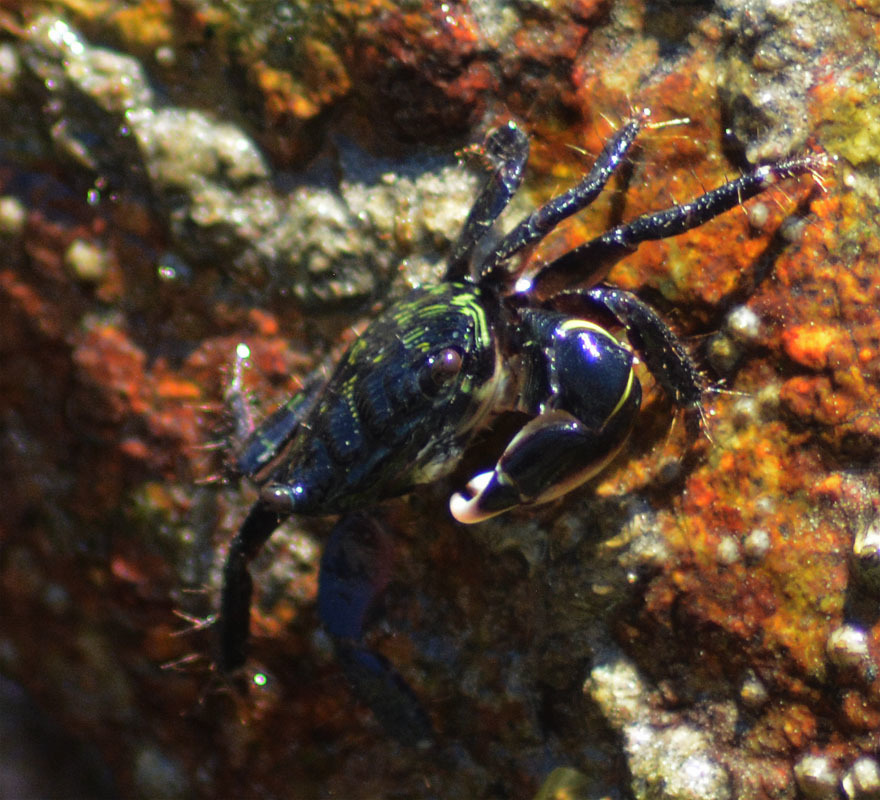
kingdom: Animalia
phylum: Arthropoda
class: Malacostraca
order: Decapoda
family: Grapsidae
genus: Pachygrapsus
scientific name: Pachygrapsus crassipes
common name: Striped shore crab
